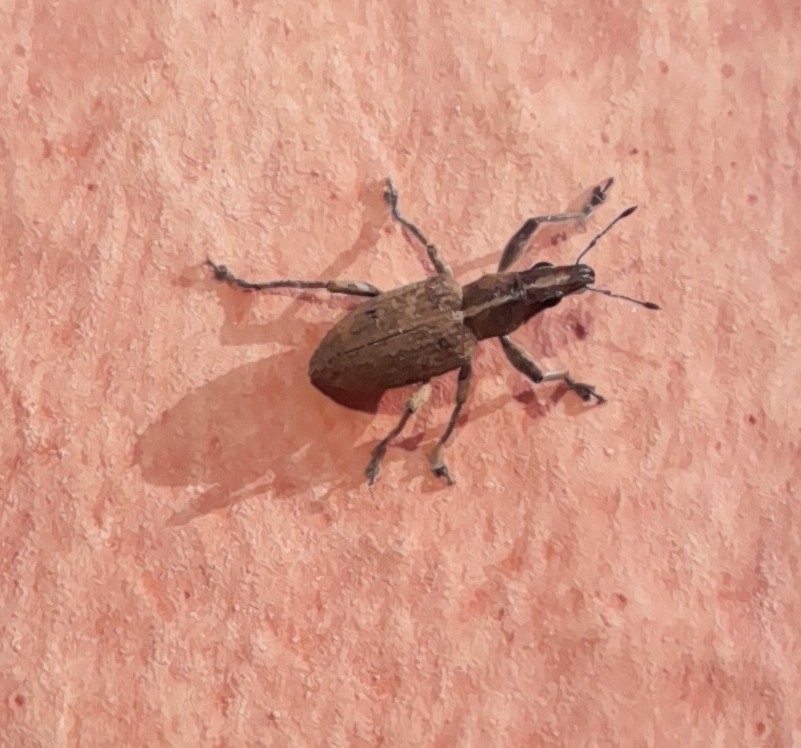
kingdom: Animalia
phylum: Arthropoda
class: Insecta
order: Coleoptera
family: Curculionidae
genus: Charagmus
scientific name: Charagmus gressorius
